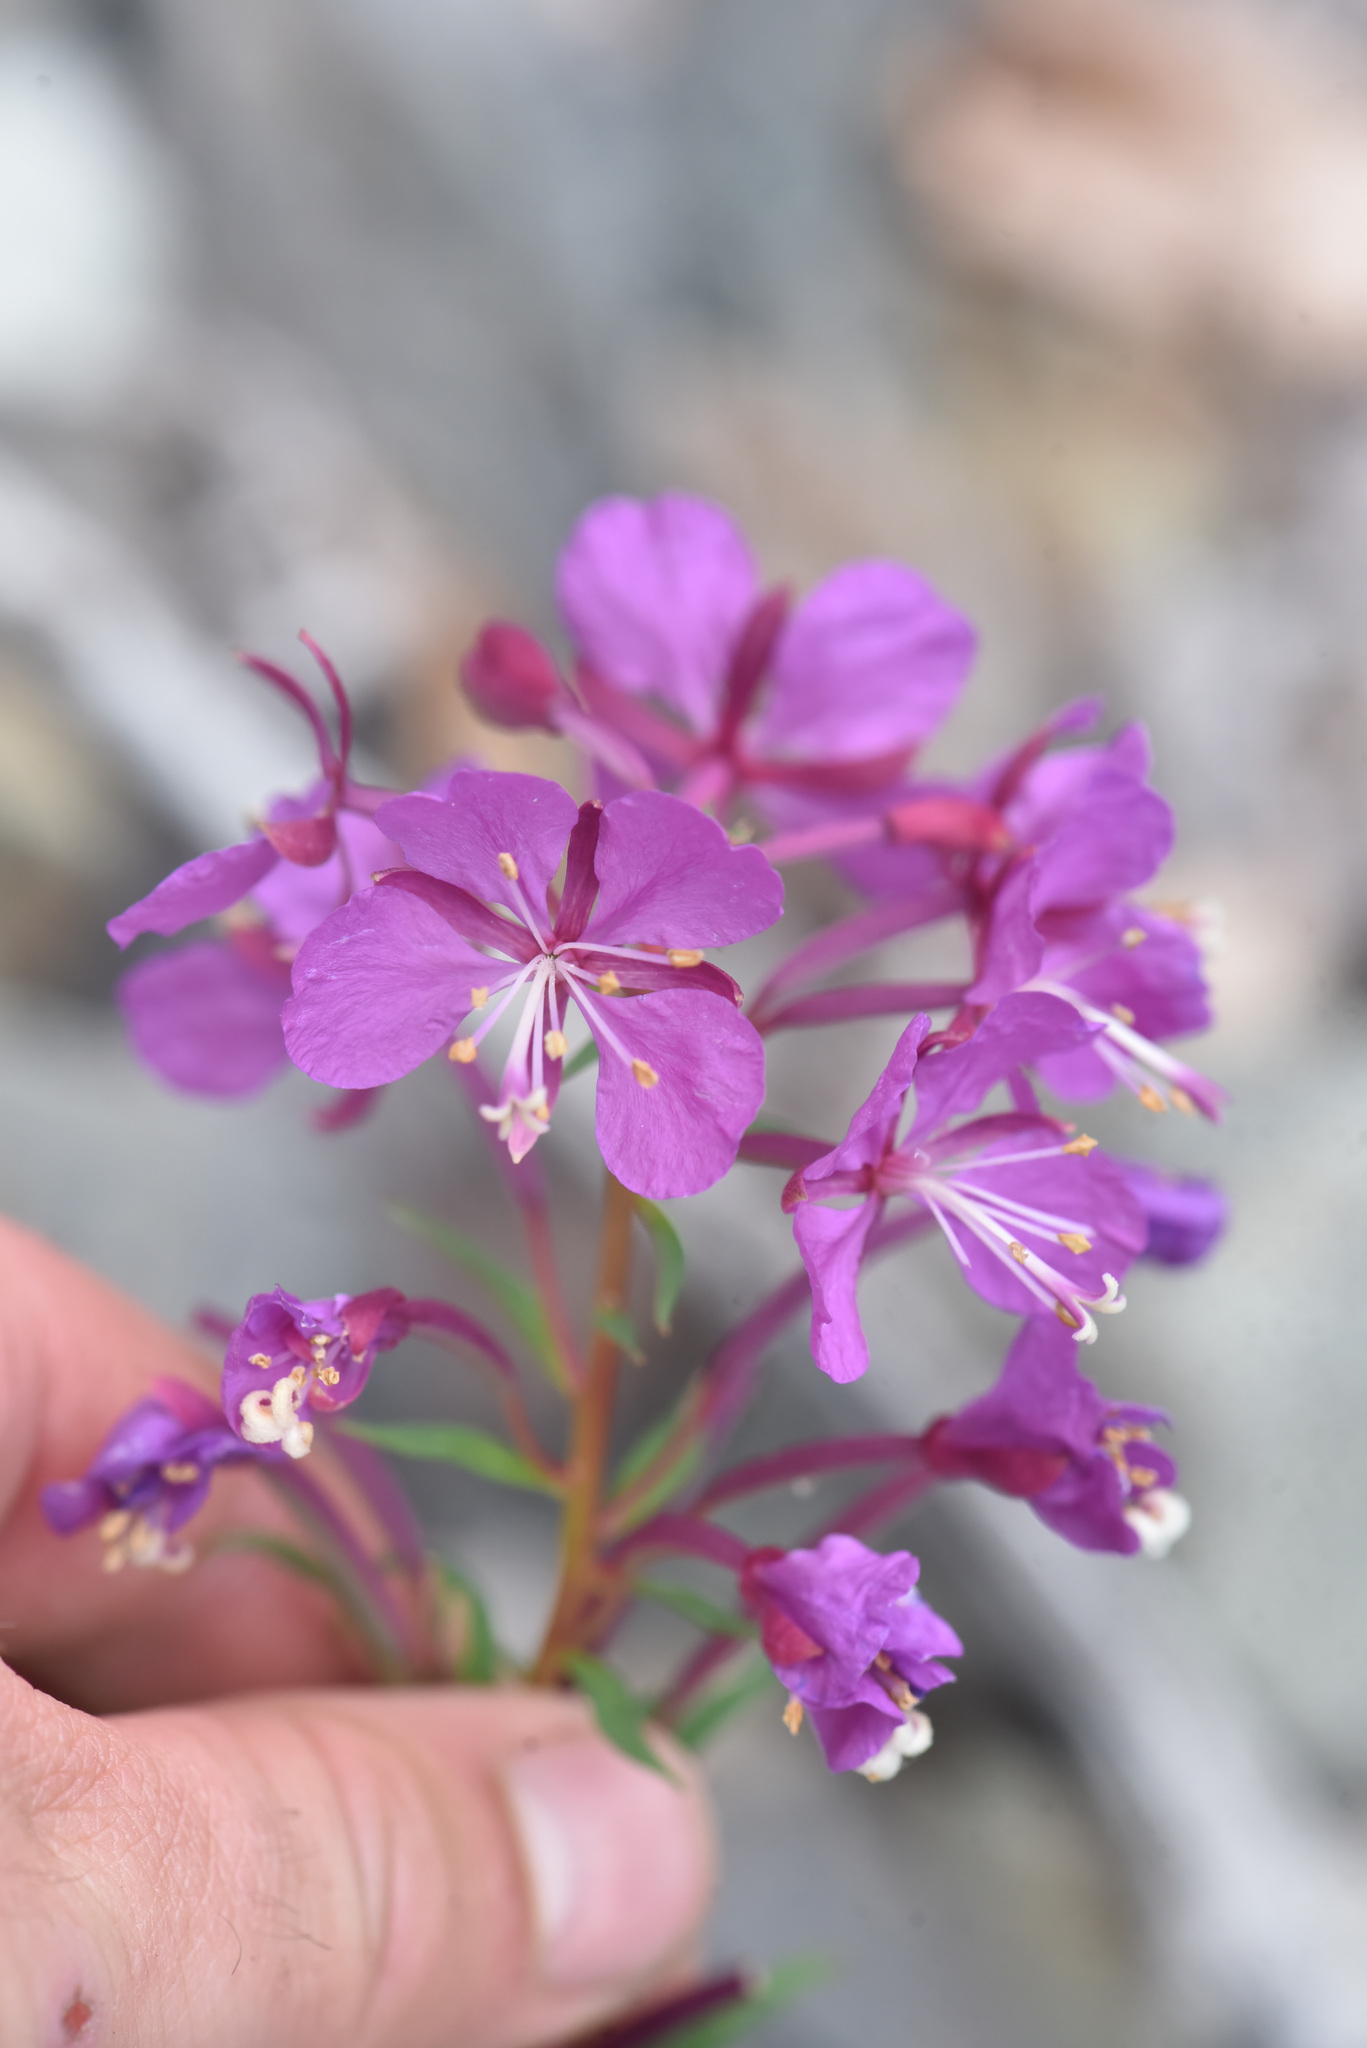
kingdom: Plantae
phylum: Tracheophyta
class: Magnoliopsida
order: Myrtales
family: Onagraceae
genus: Chamaenerion
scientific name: Chamaenerion angustifolium
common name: Fireweed
